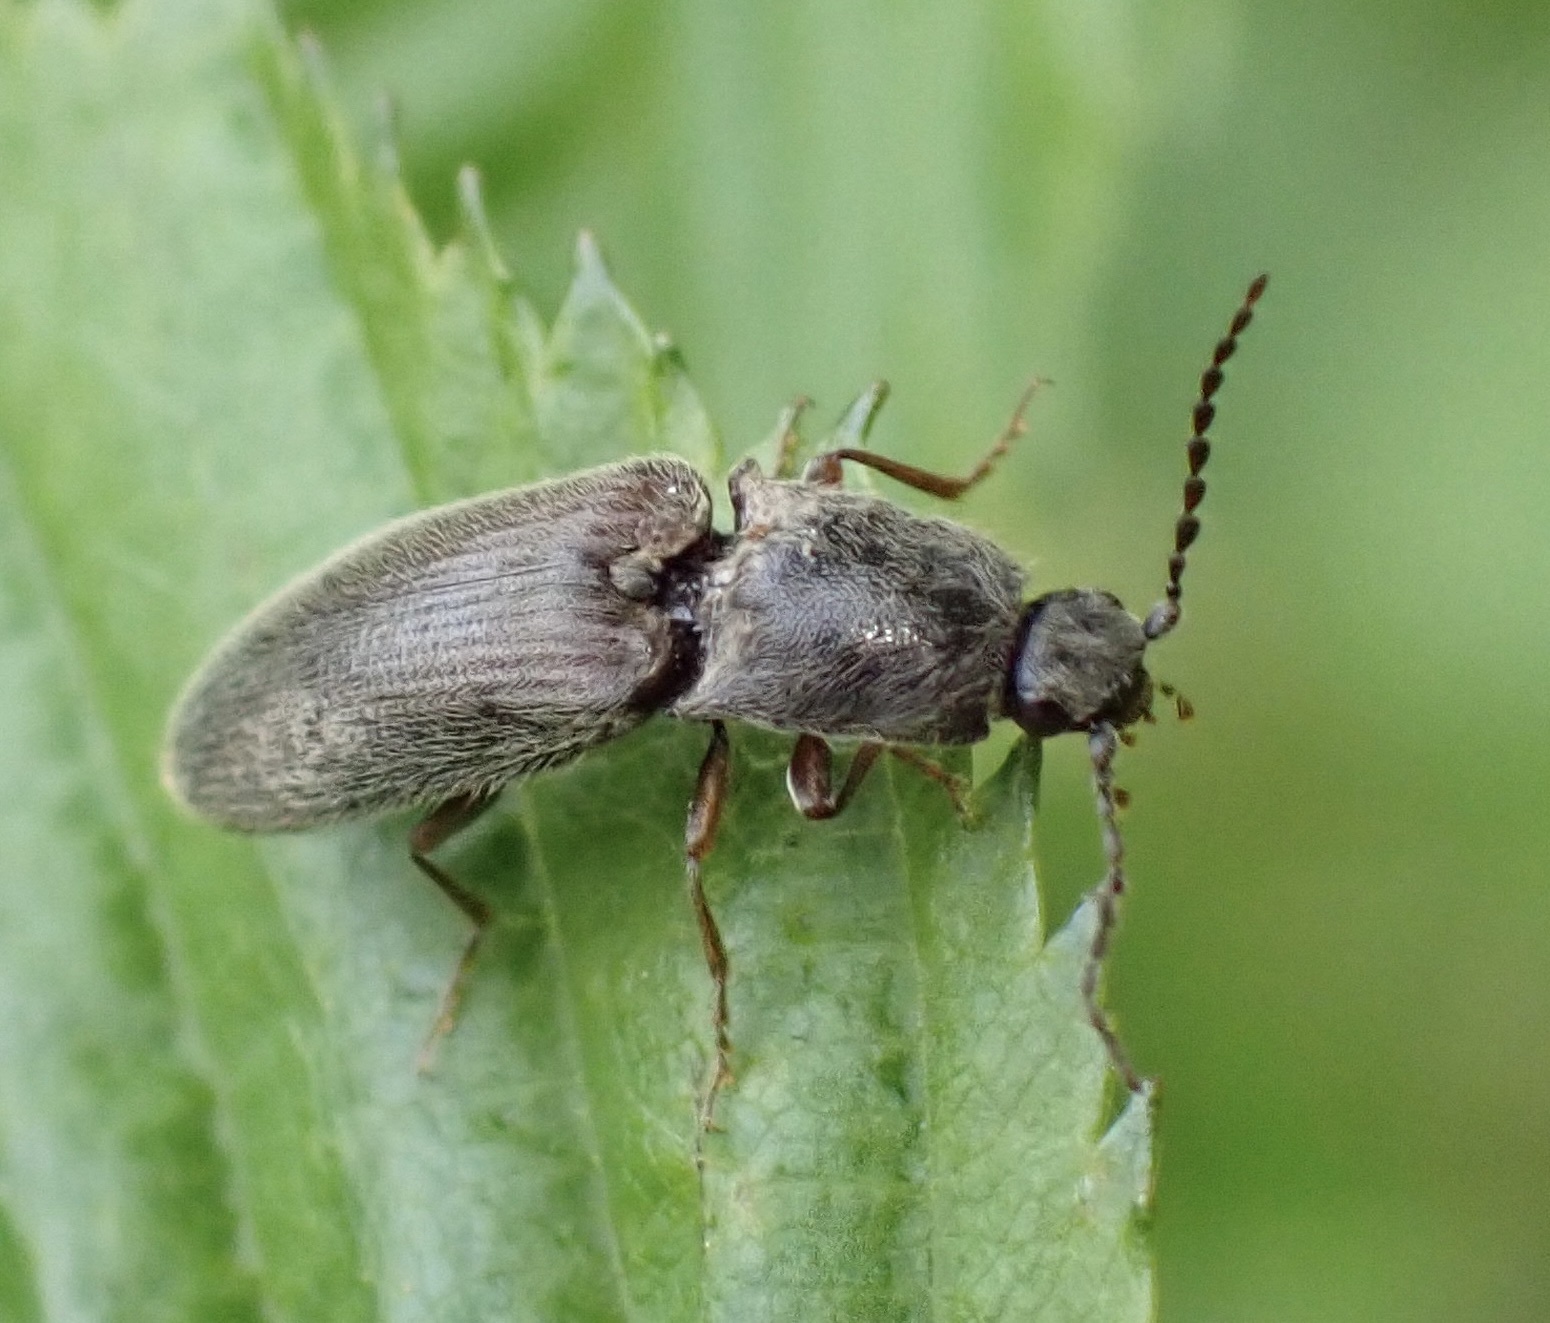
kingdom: Animalia
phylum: Arthropoda
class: Insecta
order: Coleoptera
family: Elateridae
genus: Athous
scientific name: Athous haemorrhoidalis
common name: Red-brown click beetle
